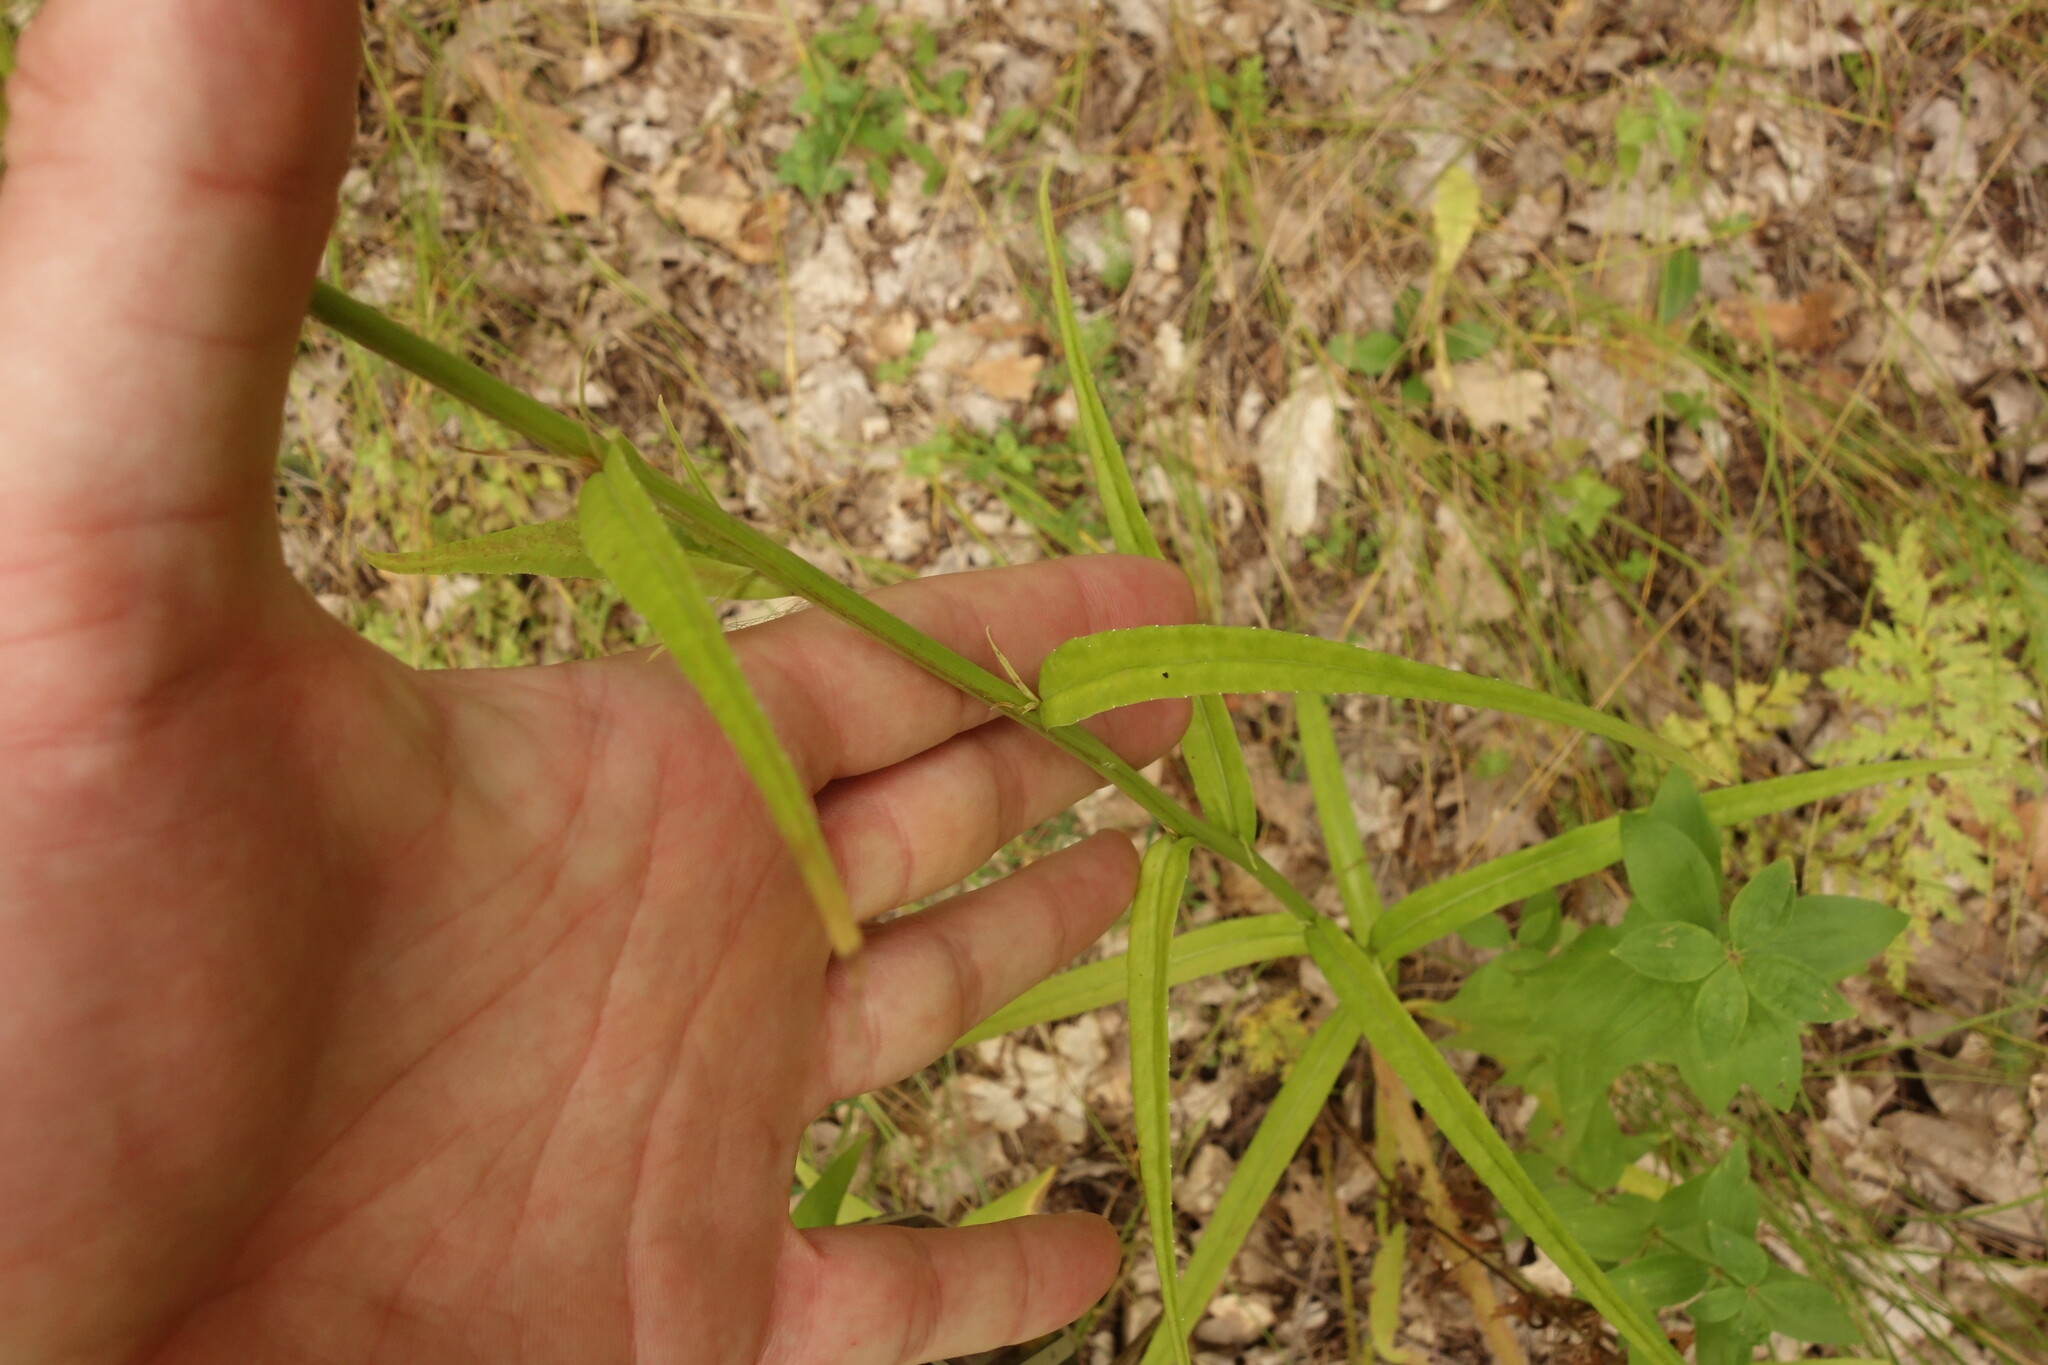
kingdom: Plantae
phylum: Tracheophyta
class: Magnoliopsida
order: Asterales
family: Campanulaceae
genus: Campanula
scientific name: Campanula persicifolia
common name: Peach-leaved bellflower
